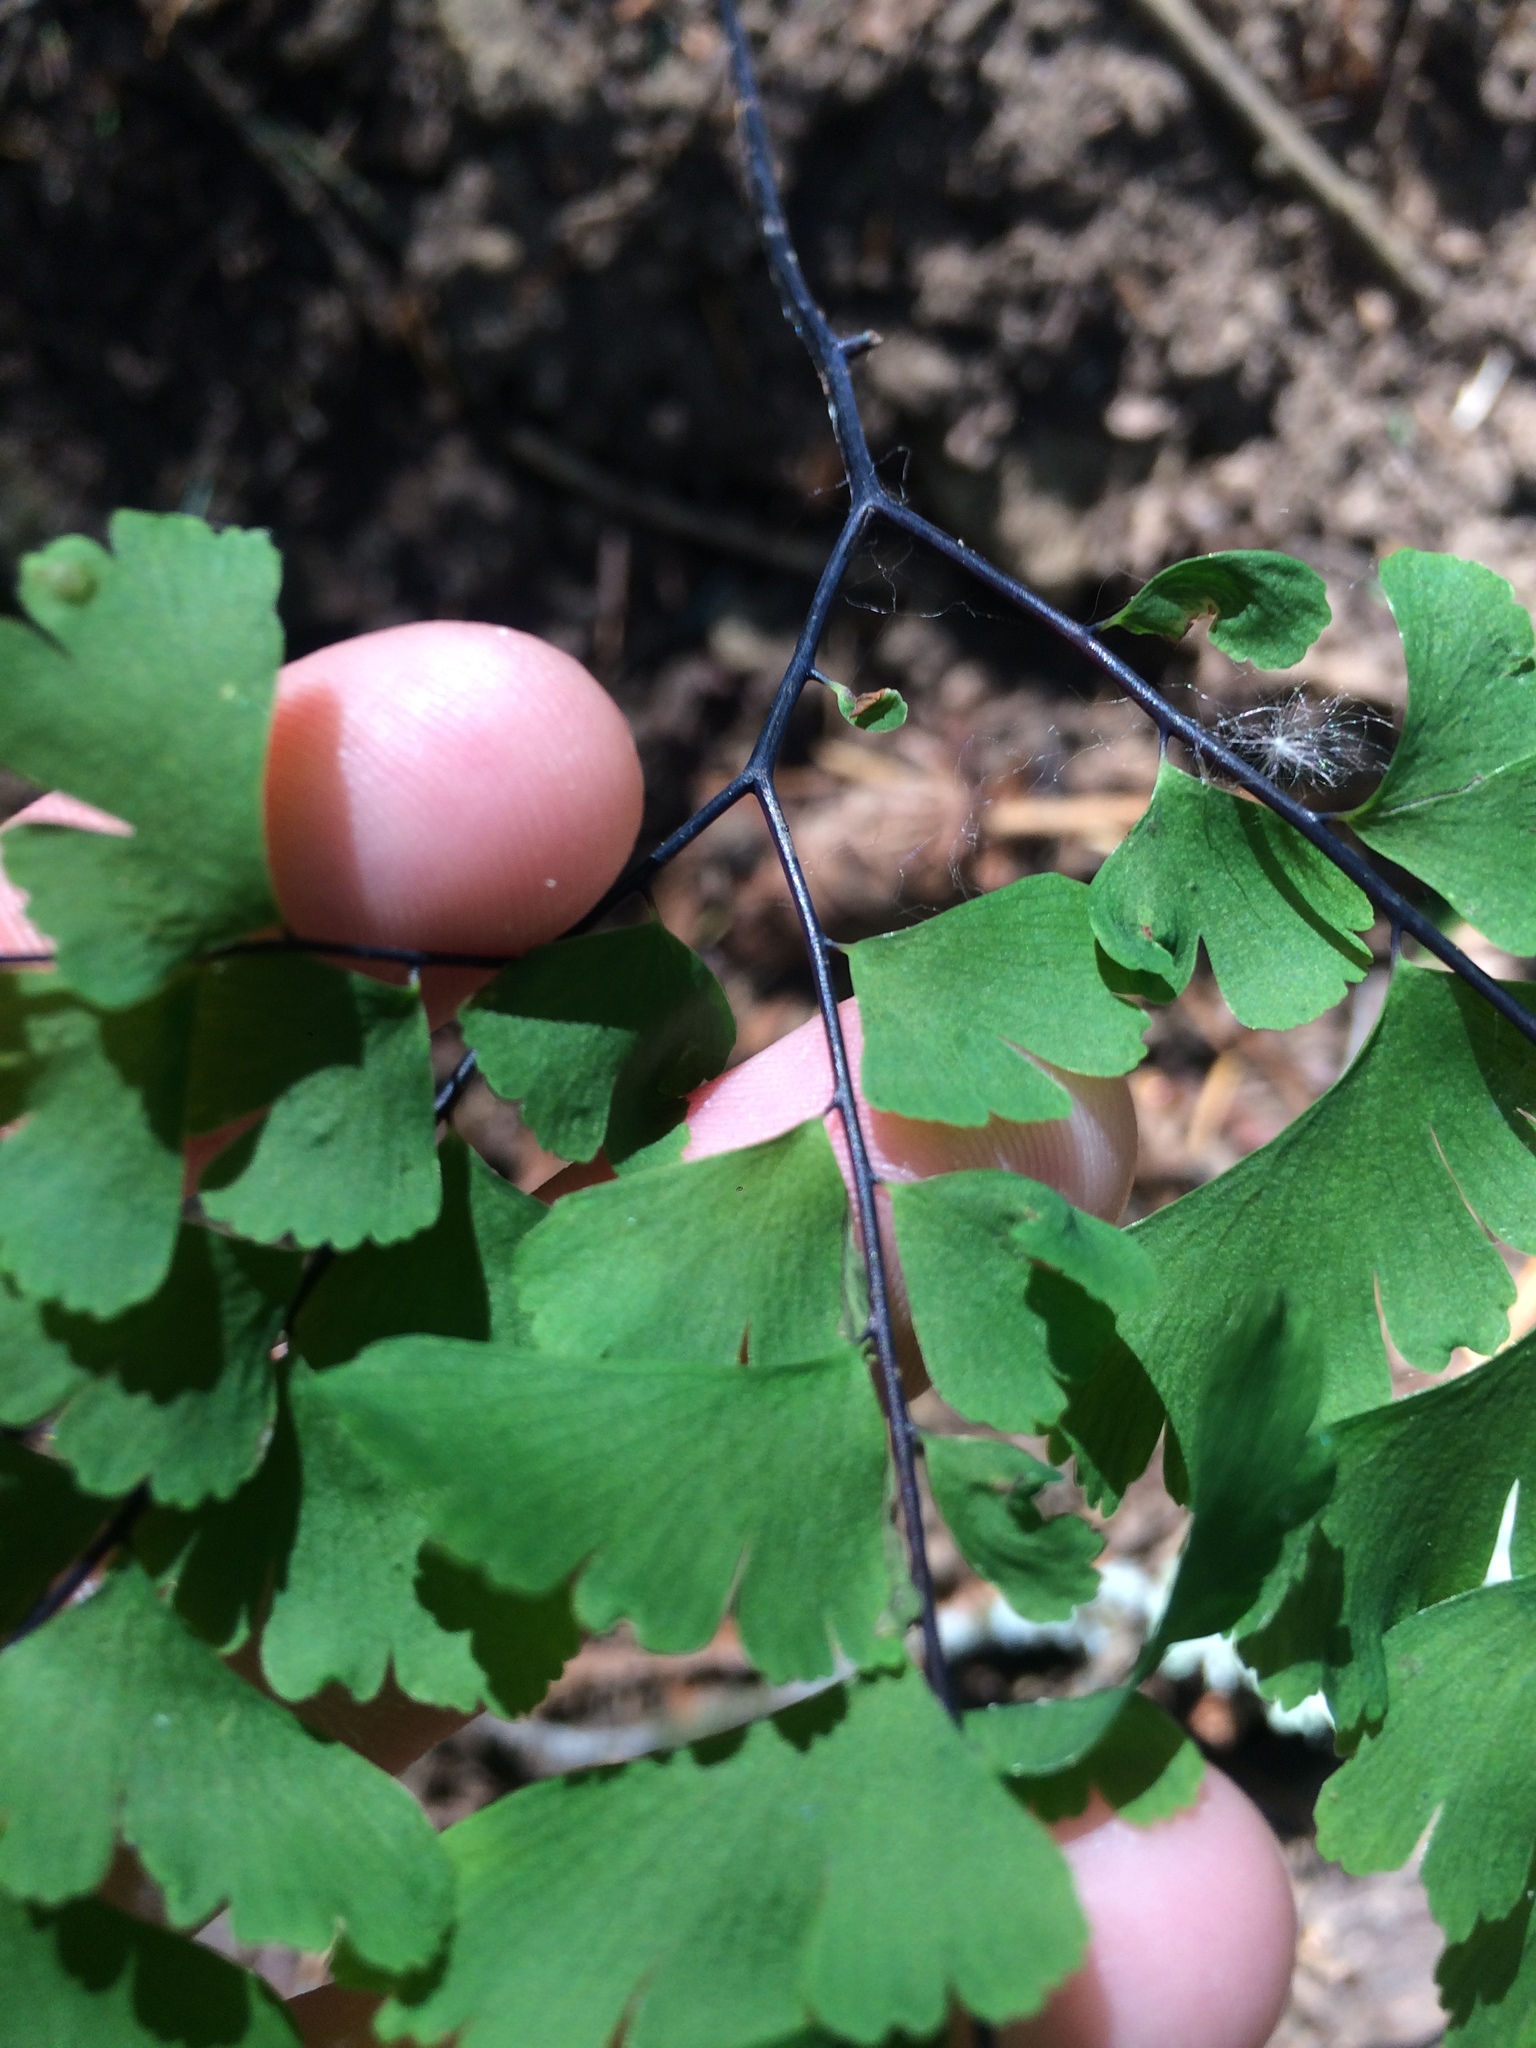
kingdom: Plantae
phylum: Tracheophyta
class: Polypodiopsida
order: Polypodiales
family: Pteridaceae
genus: Adiantum
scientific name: Adiantum aleuticum
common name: Aleutian maidenhair fern
